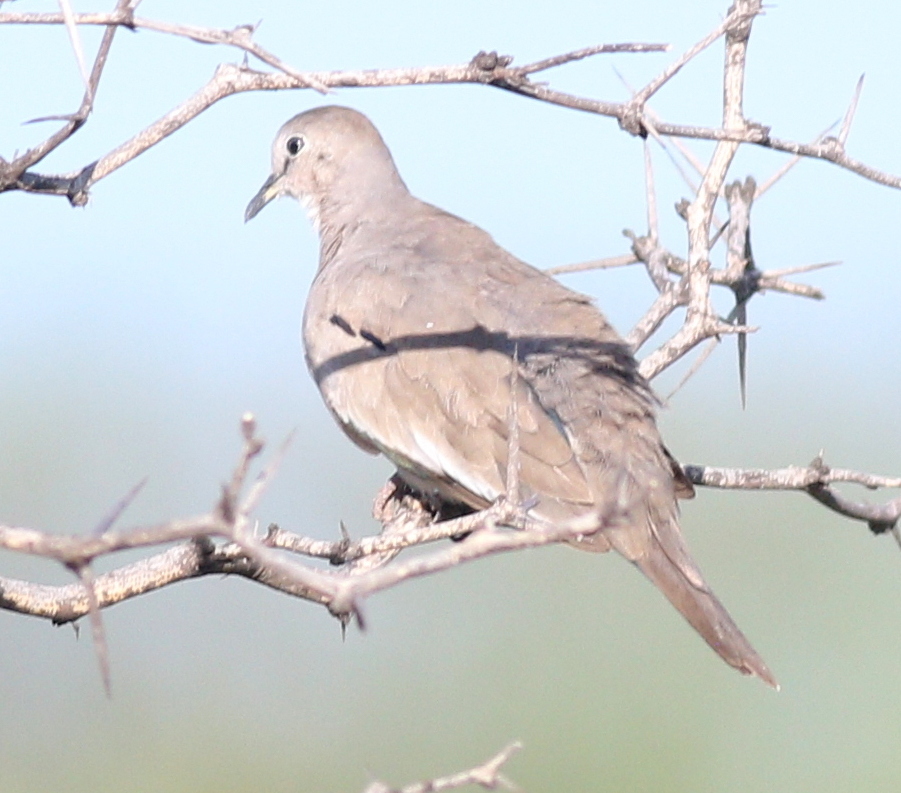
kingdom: Animalia
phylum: Chordata
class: Aves
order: Columbiformes
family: Columbidae
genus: Columbina
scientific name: Columbina picui
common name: Picui ground dove
